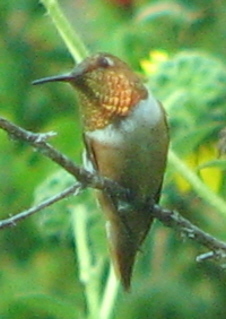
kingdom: Animalia
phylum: Chordata
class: Aves
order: Apodiformes
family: Trochilidae
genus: Selasphorus
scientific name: Selasphorus sasin
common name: Allen's hummingbird
